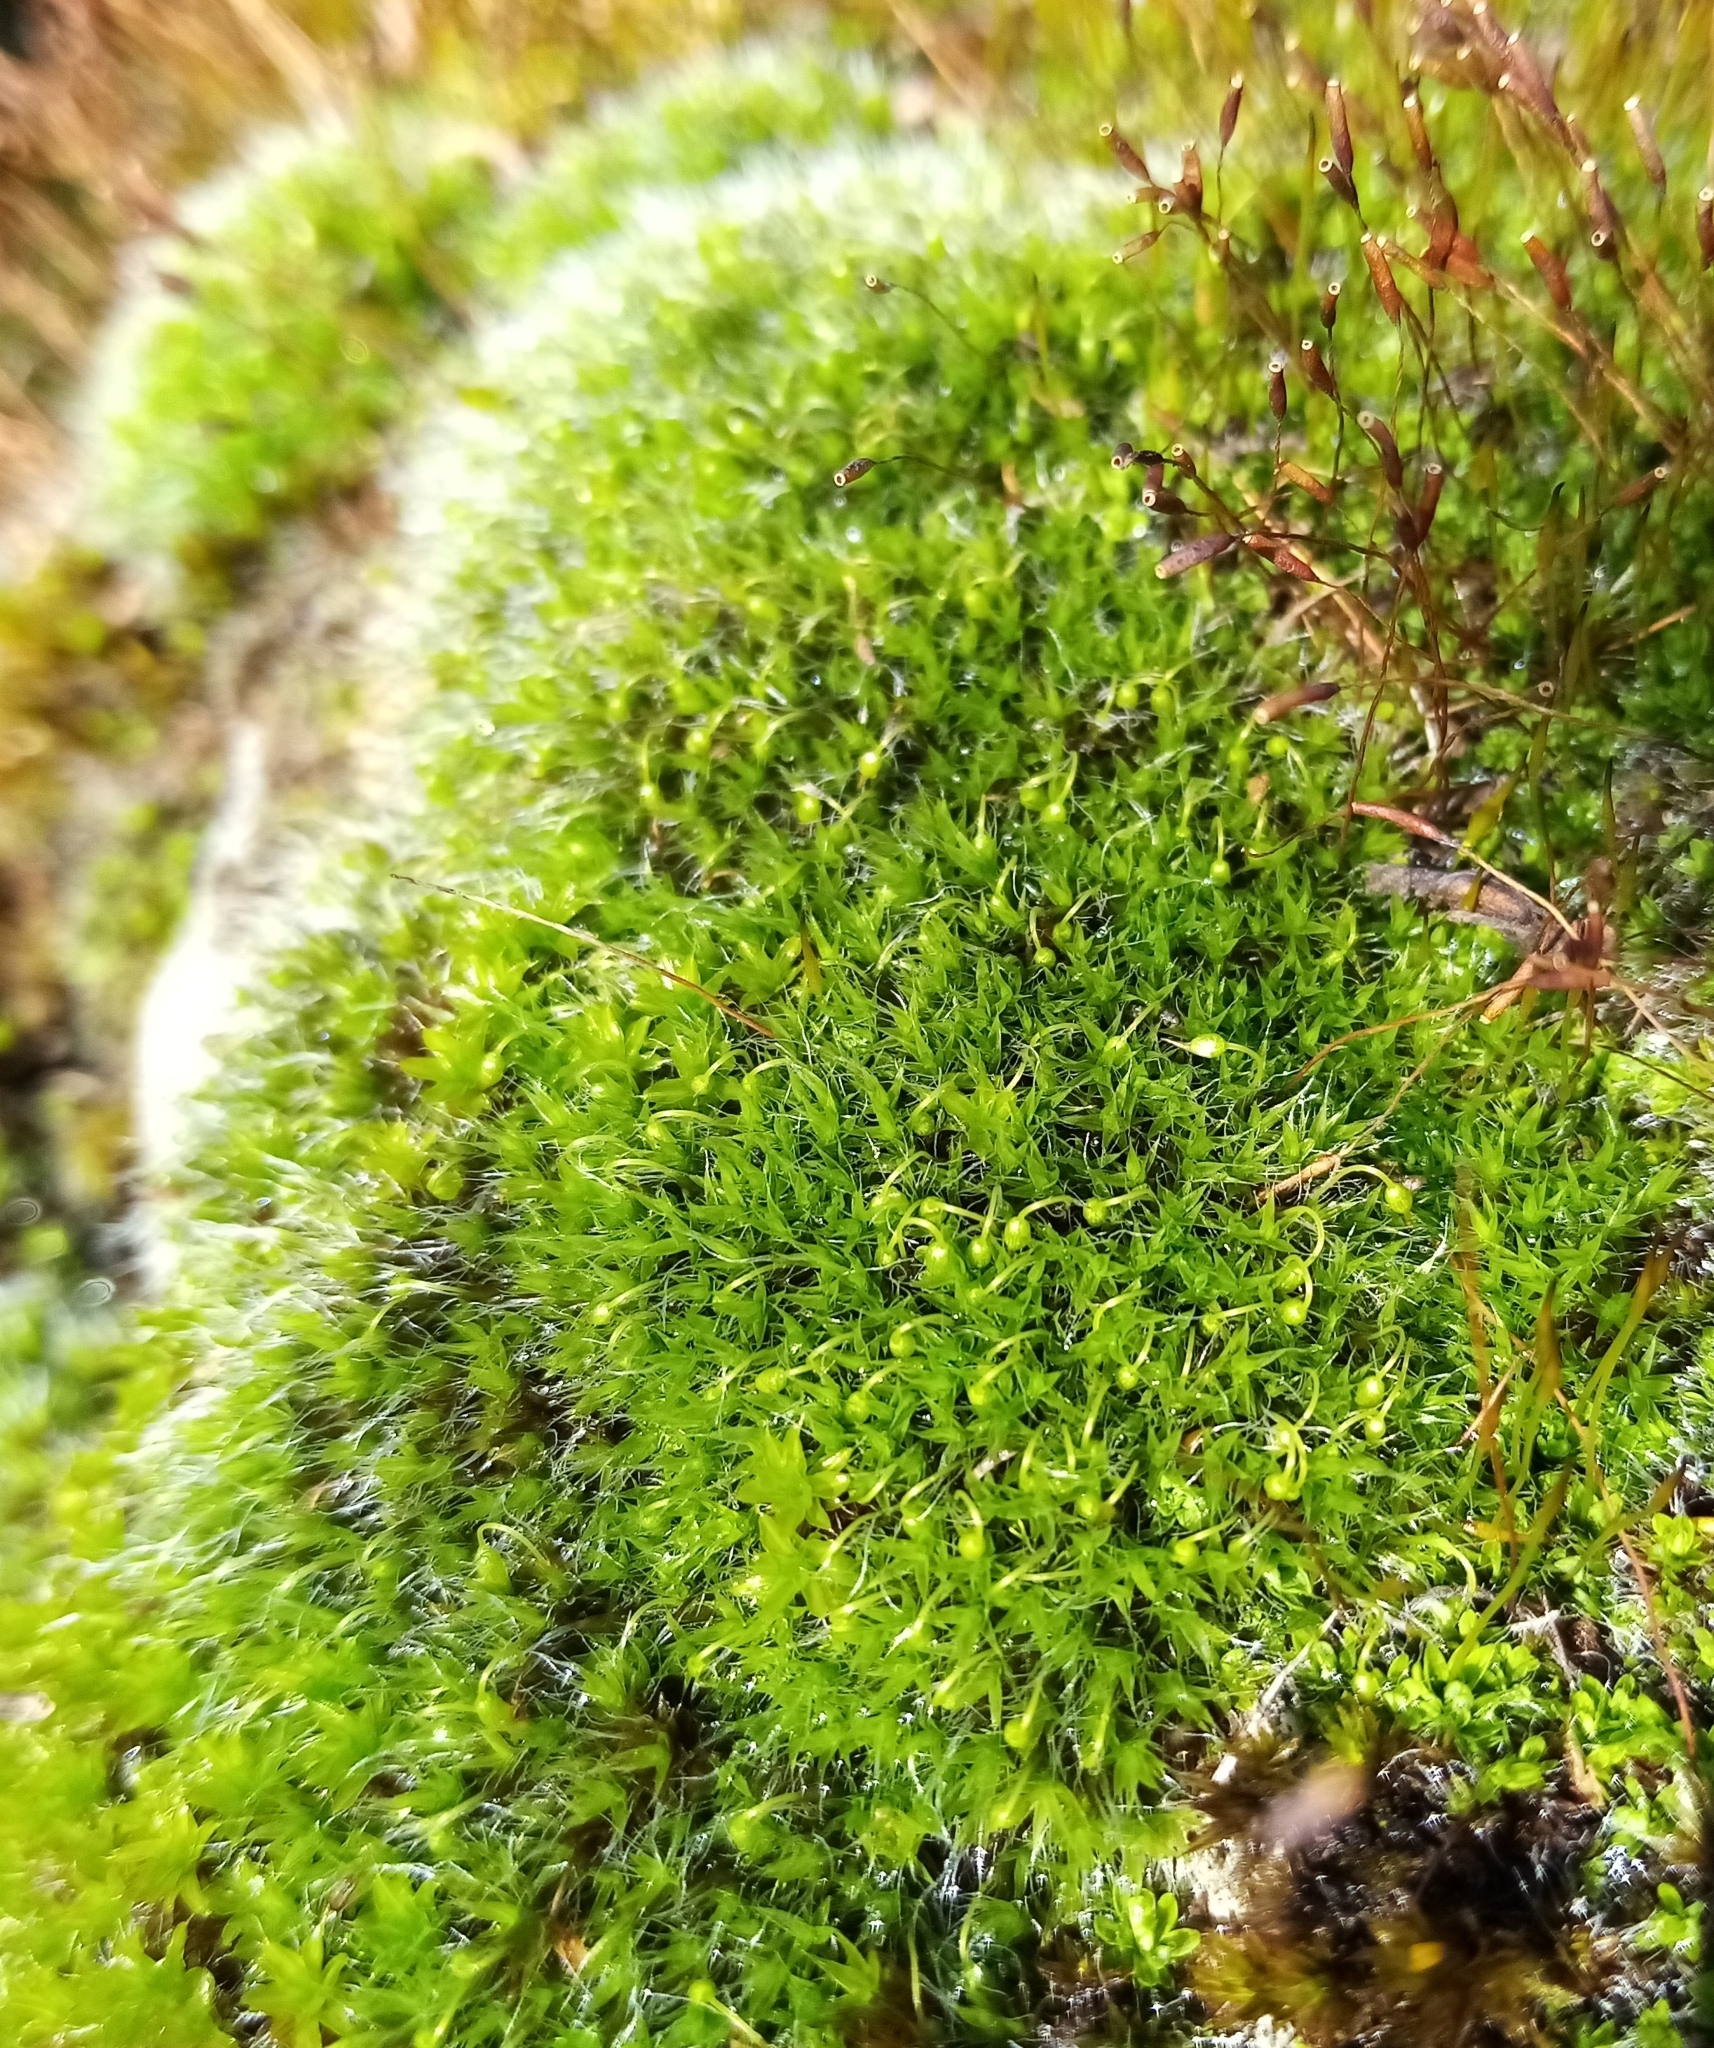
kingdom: Plantae
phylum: Bryophyta
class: Bryopsida
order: Grimmiales
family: Grimmiaceae
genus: Grimmia
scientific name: Grimmia pulvinata
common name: Grey-cushioned grimmia
